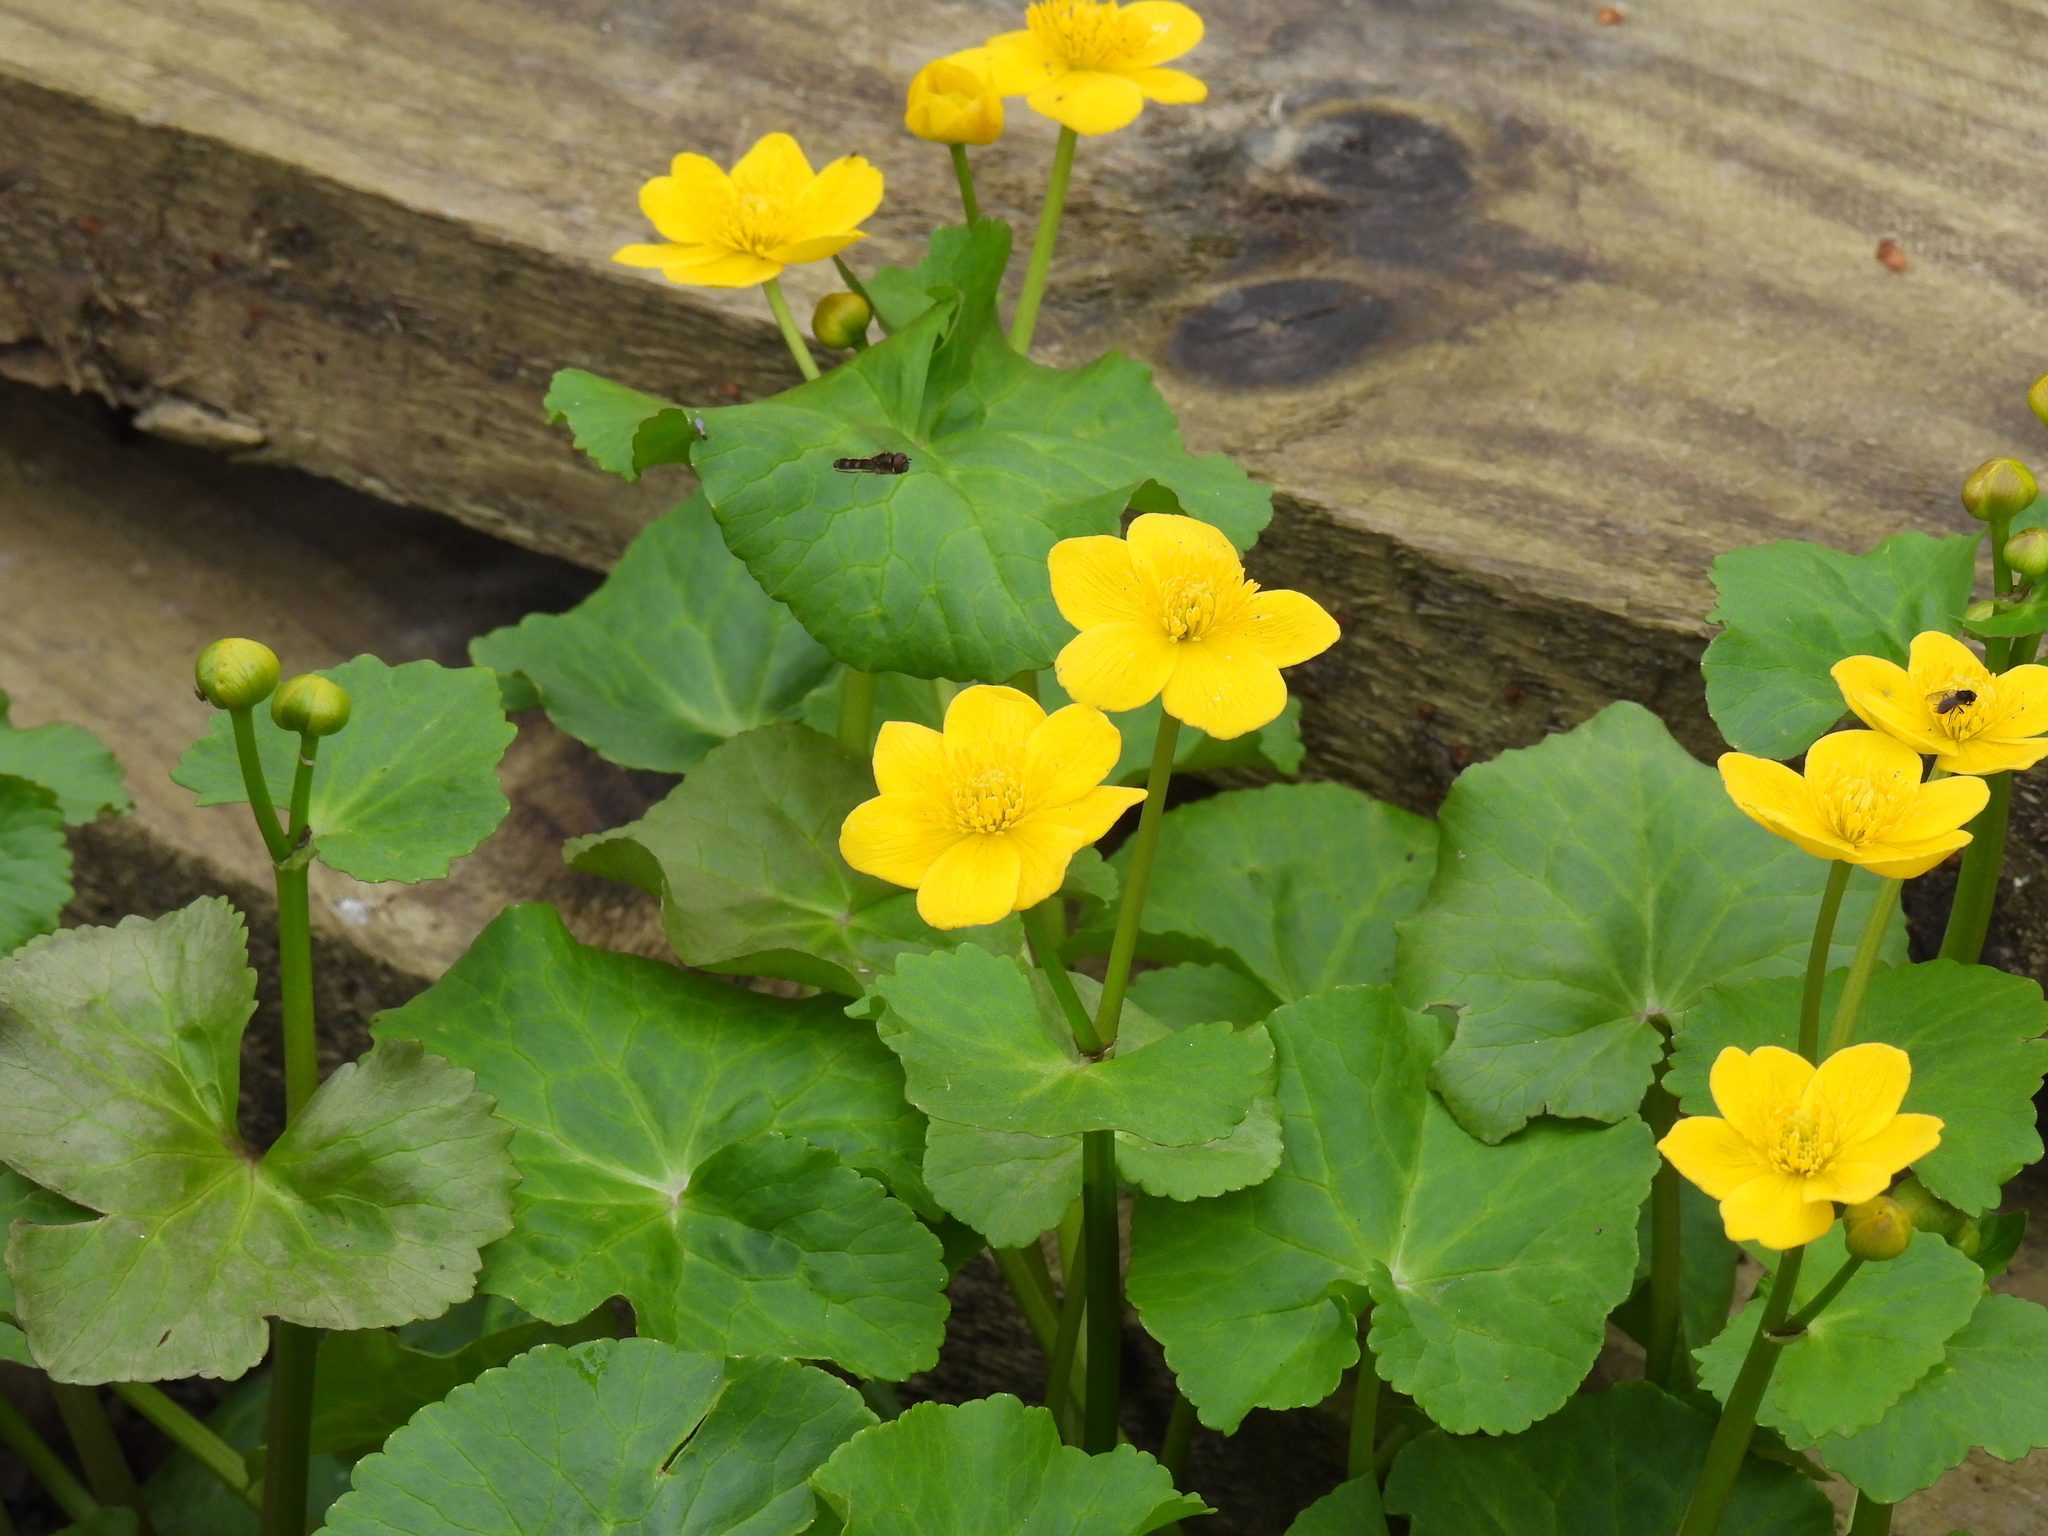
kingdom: Plantae
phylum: Tracheophyta
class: Magnoliopsida
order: Ranunculales
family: Ranunculaceae
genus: Caltha
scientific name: Caltha palustris
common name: Marsh marigold
